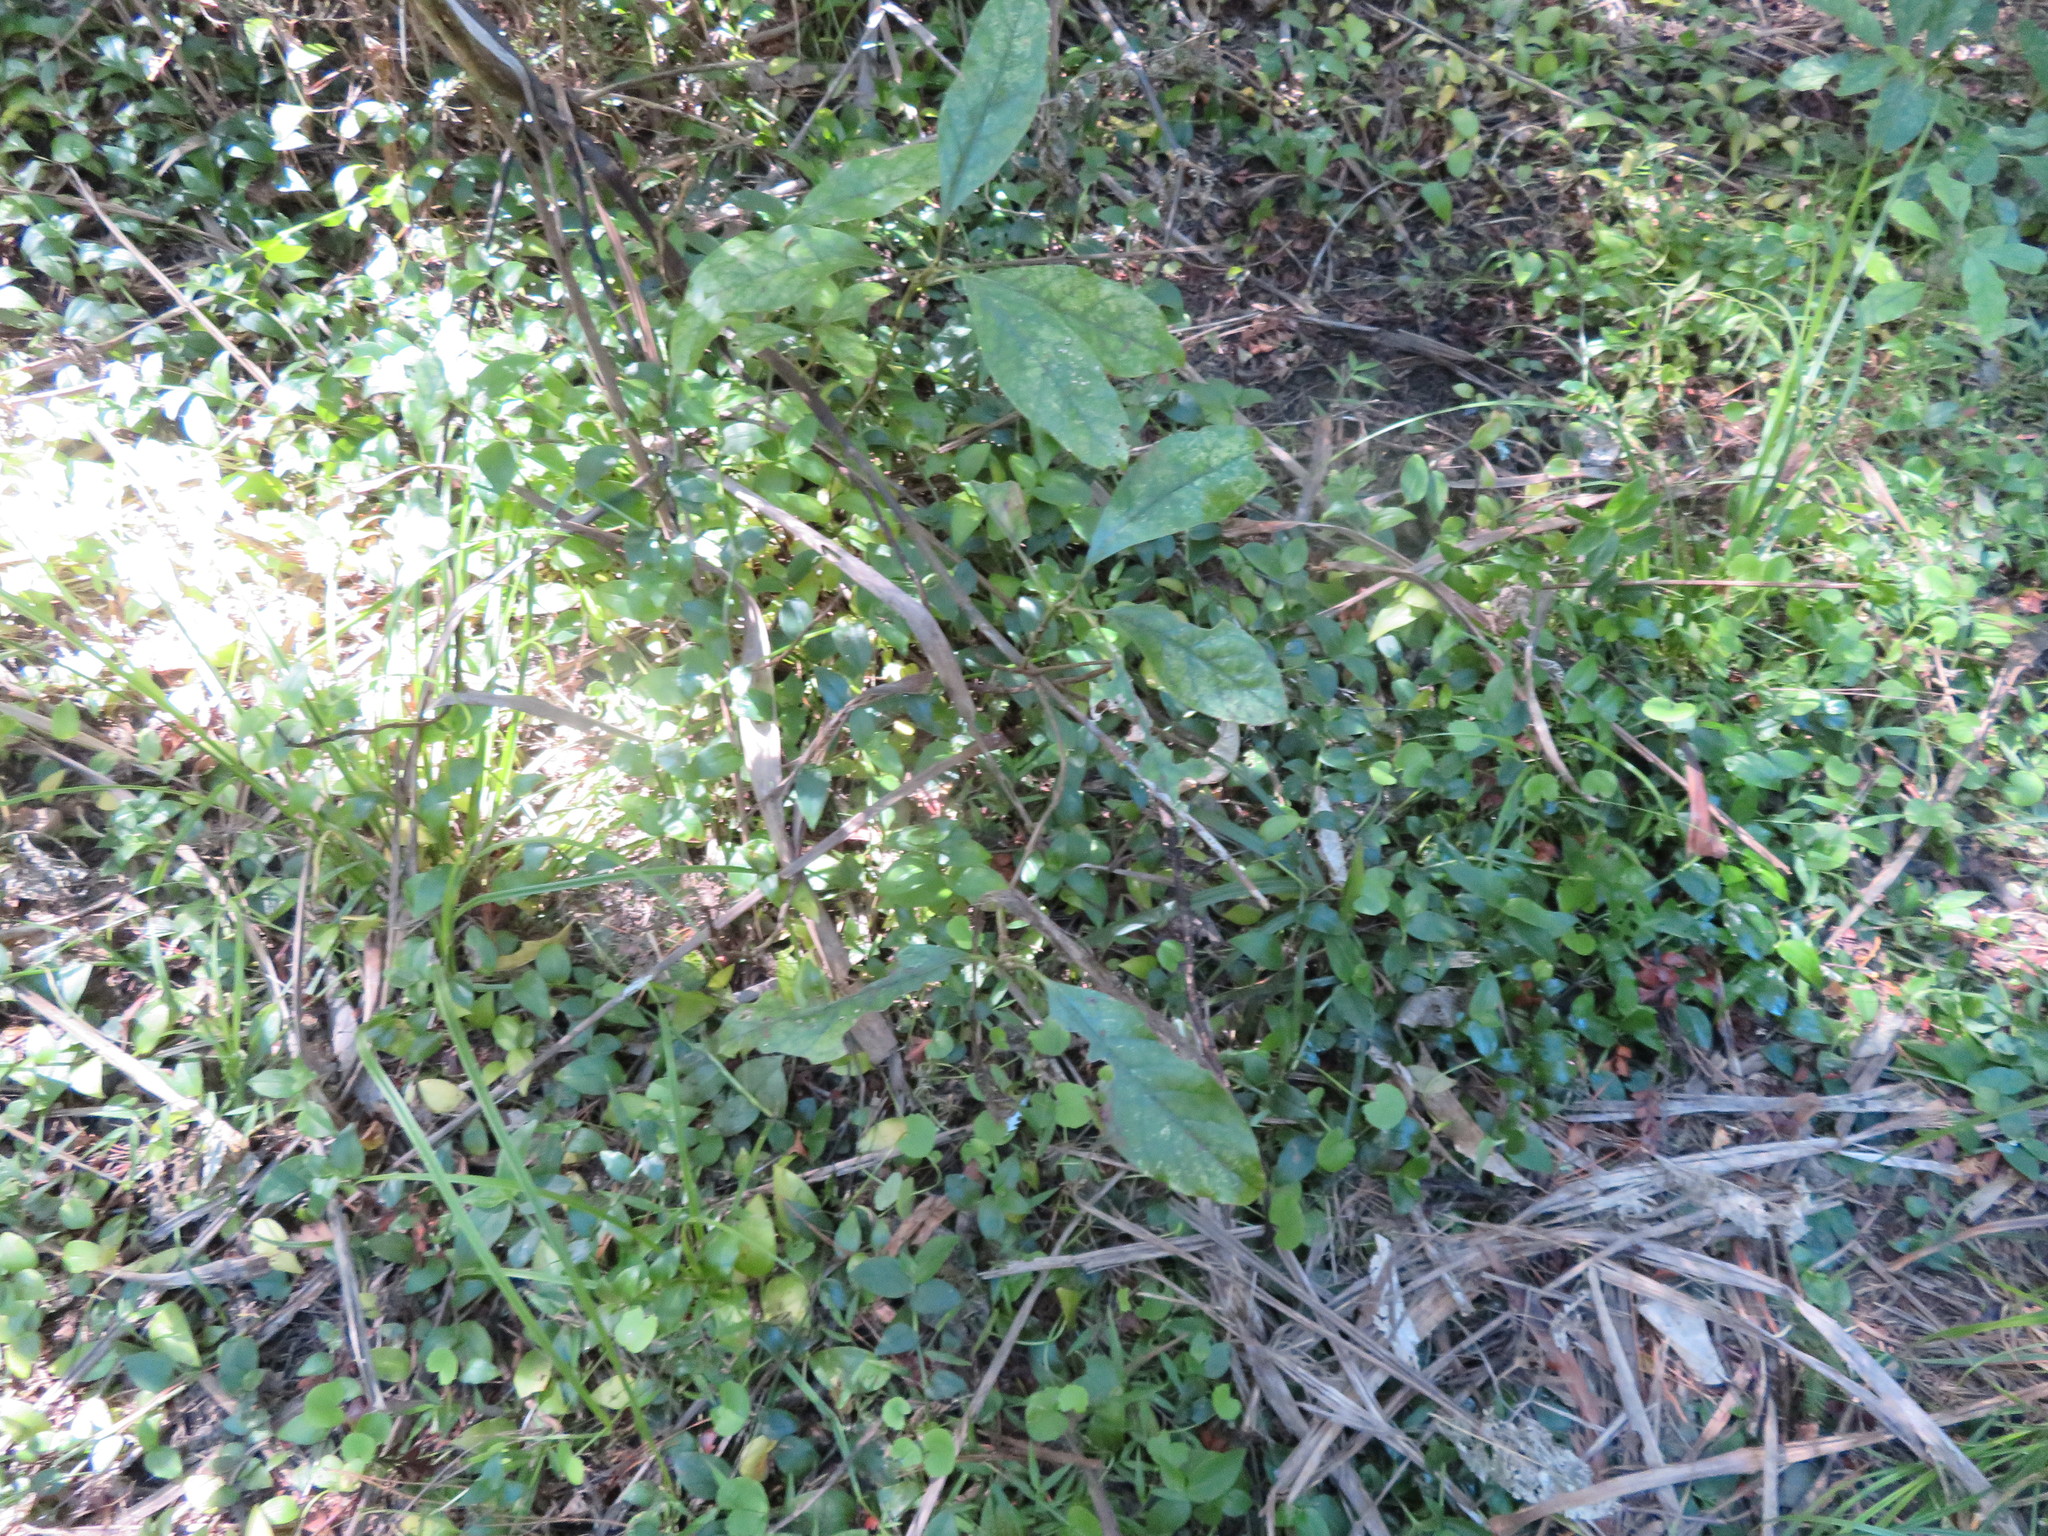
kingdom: Plantae
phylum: Tracheophyta
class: Liliopsida
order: Commelinales
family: Commelinaceae
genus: Tradescantia
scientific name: Tradescantia fluminensis
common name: Wandering-jew
